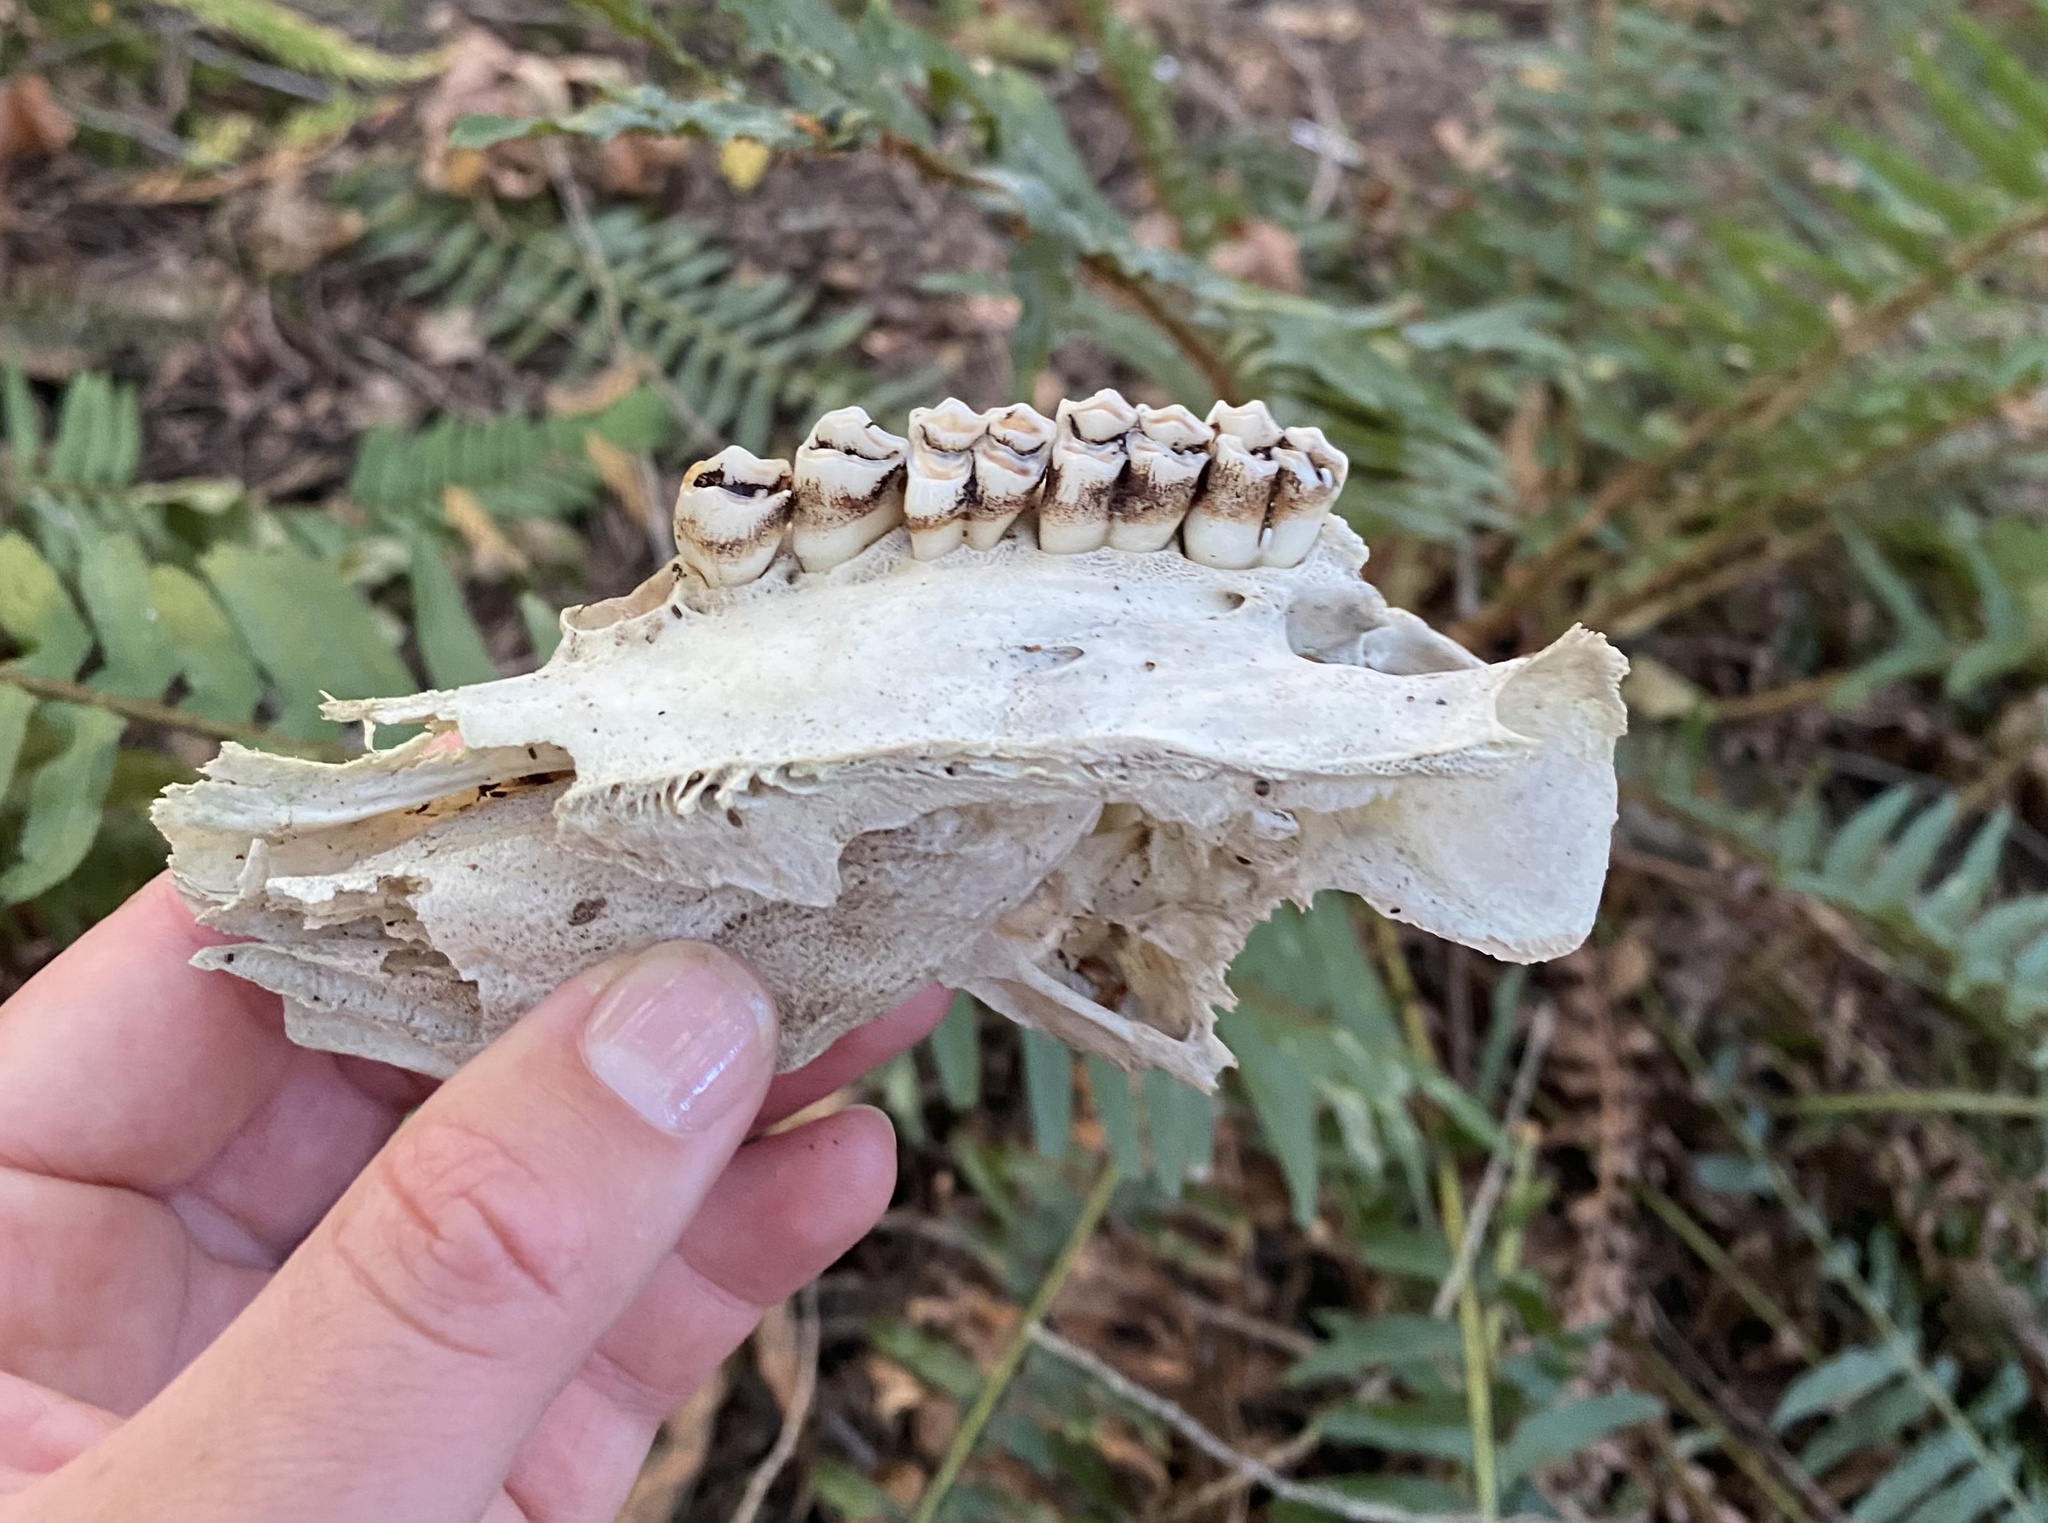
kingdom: Animalia
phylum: Chordata
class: Mammalia
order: Artiodactyla
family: Cervidae
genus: Odocoileus
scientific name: Odocoileus hemionus
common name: Mule deer
